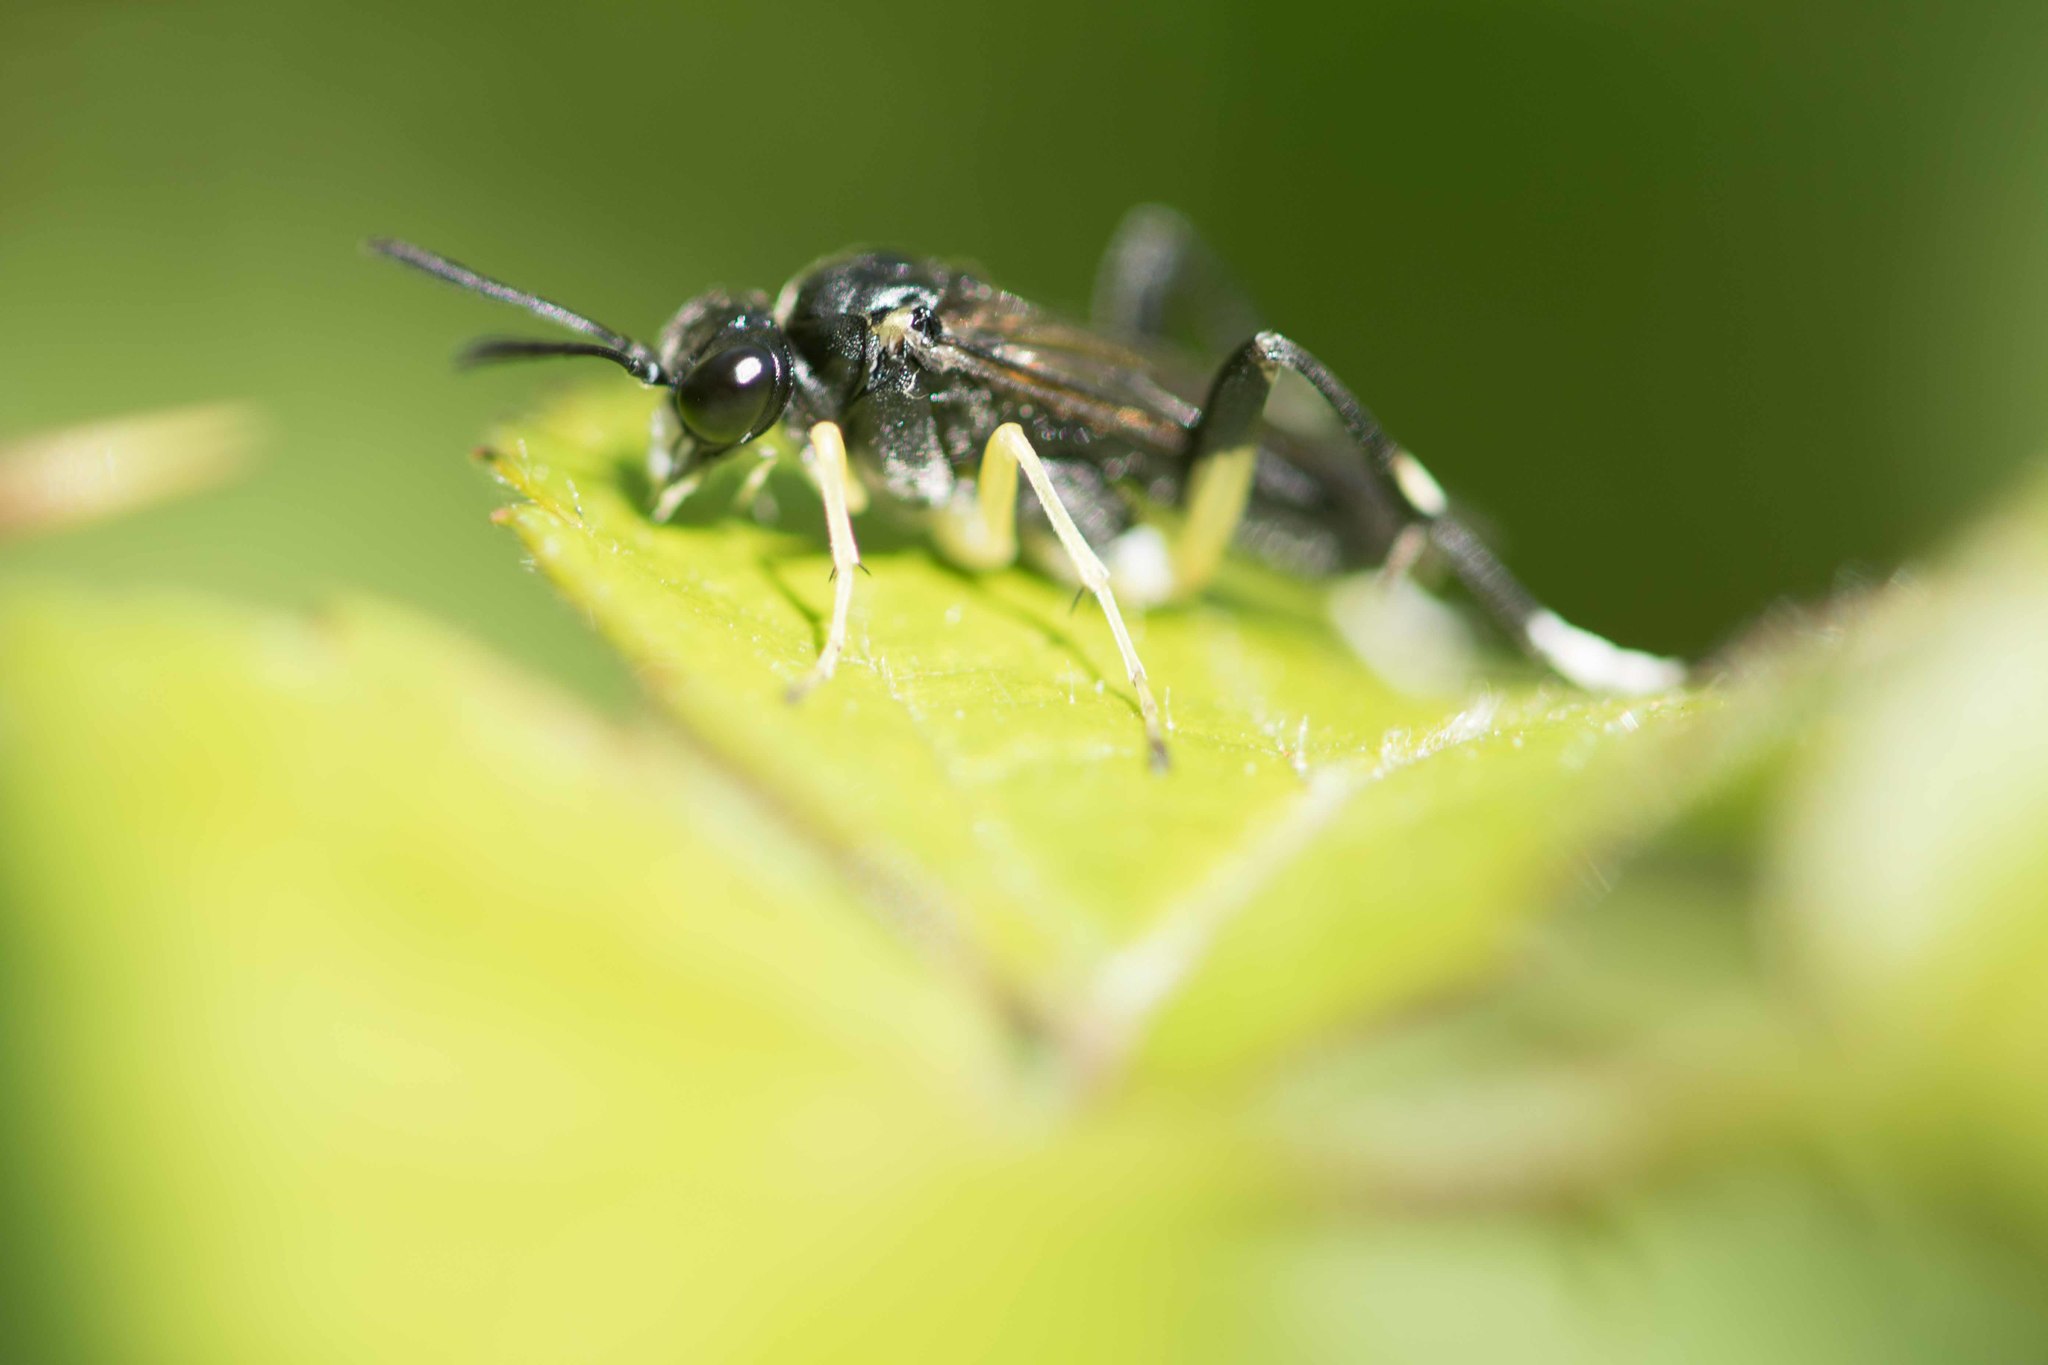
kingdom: Animalia
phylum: Arthropoda
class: Insecta
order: Hymenoptera
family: Tenthredinidae
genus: Macrophya
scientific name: Macrophya montana
